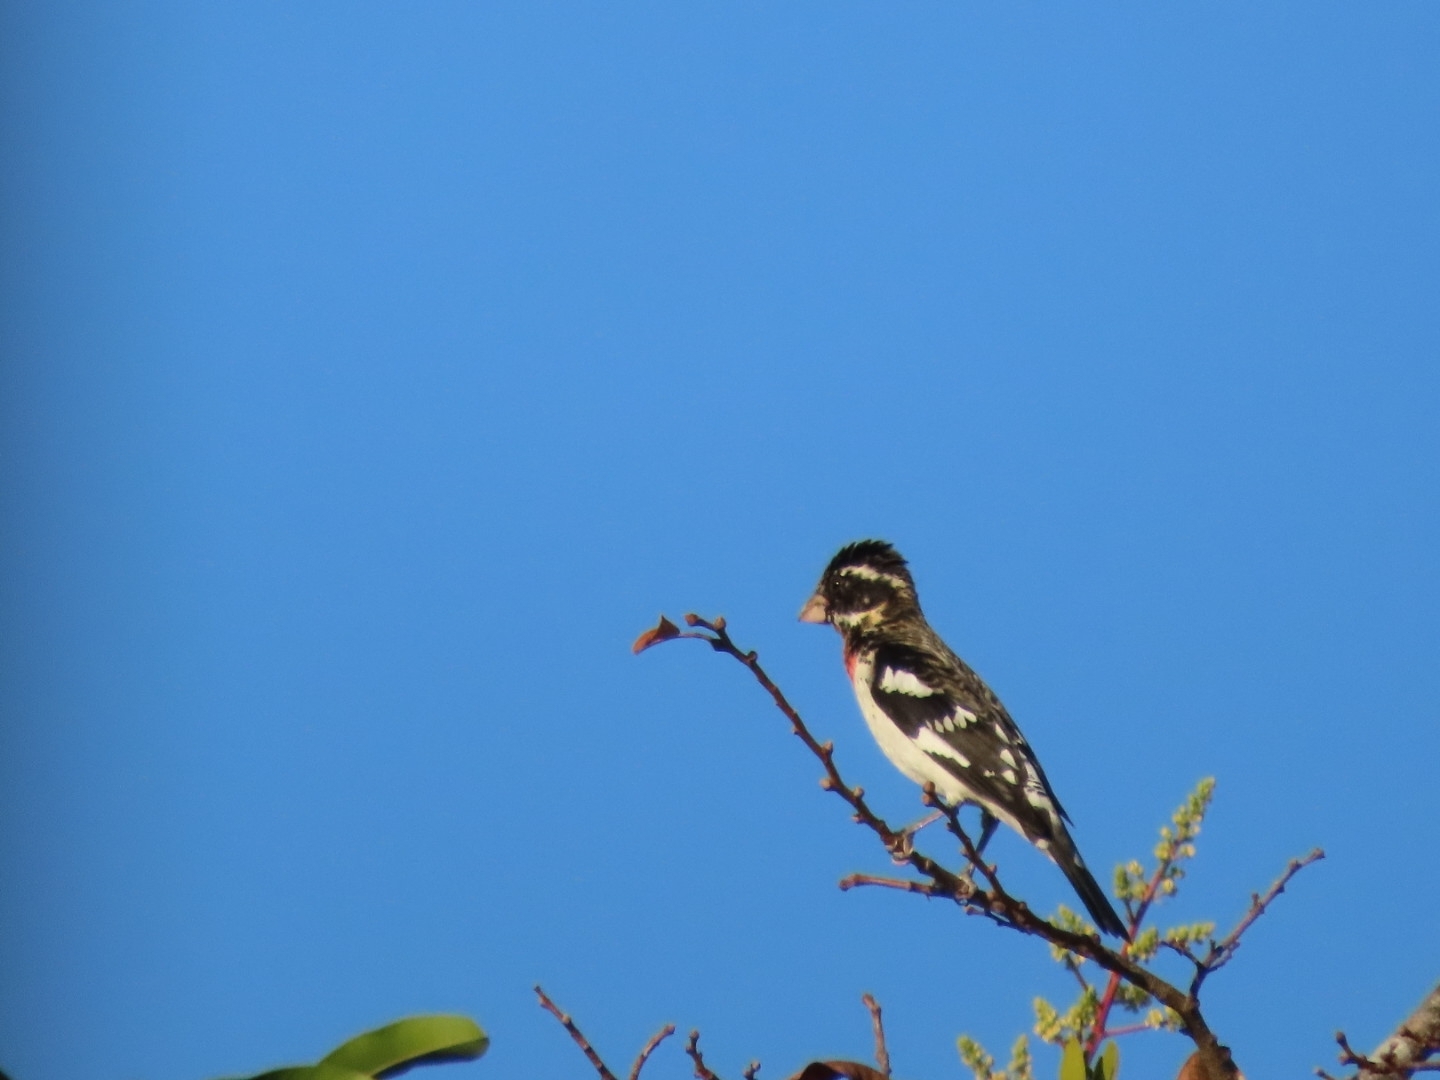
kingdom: Animalia
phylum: Chordata
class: Aves
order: Passeriformes
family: Cardinalidae
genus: Pheucticus
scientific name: Pheucticus ludovicianus
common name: Rose-breasted grosbeak
